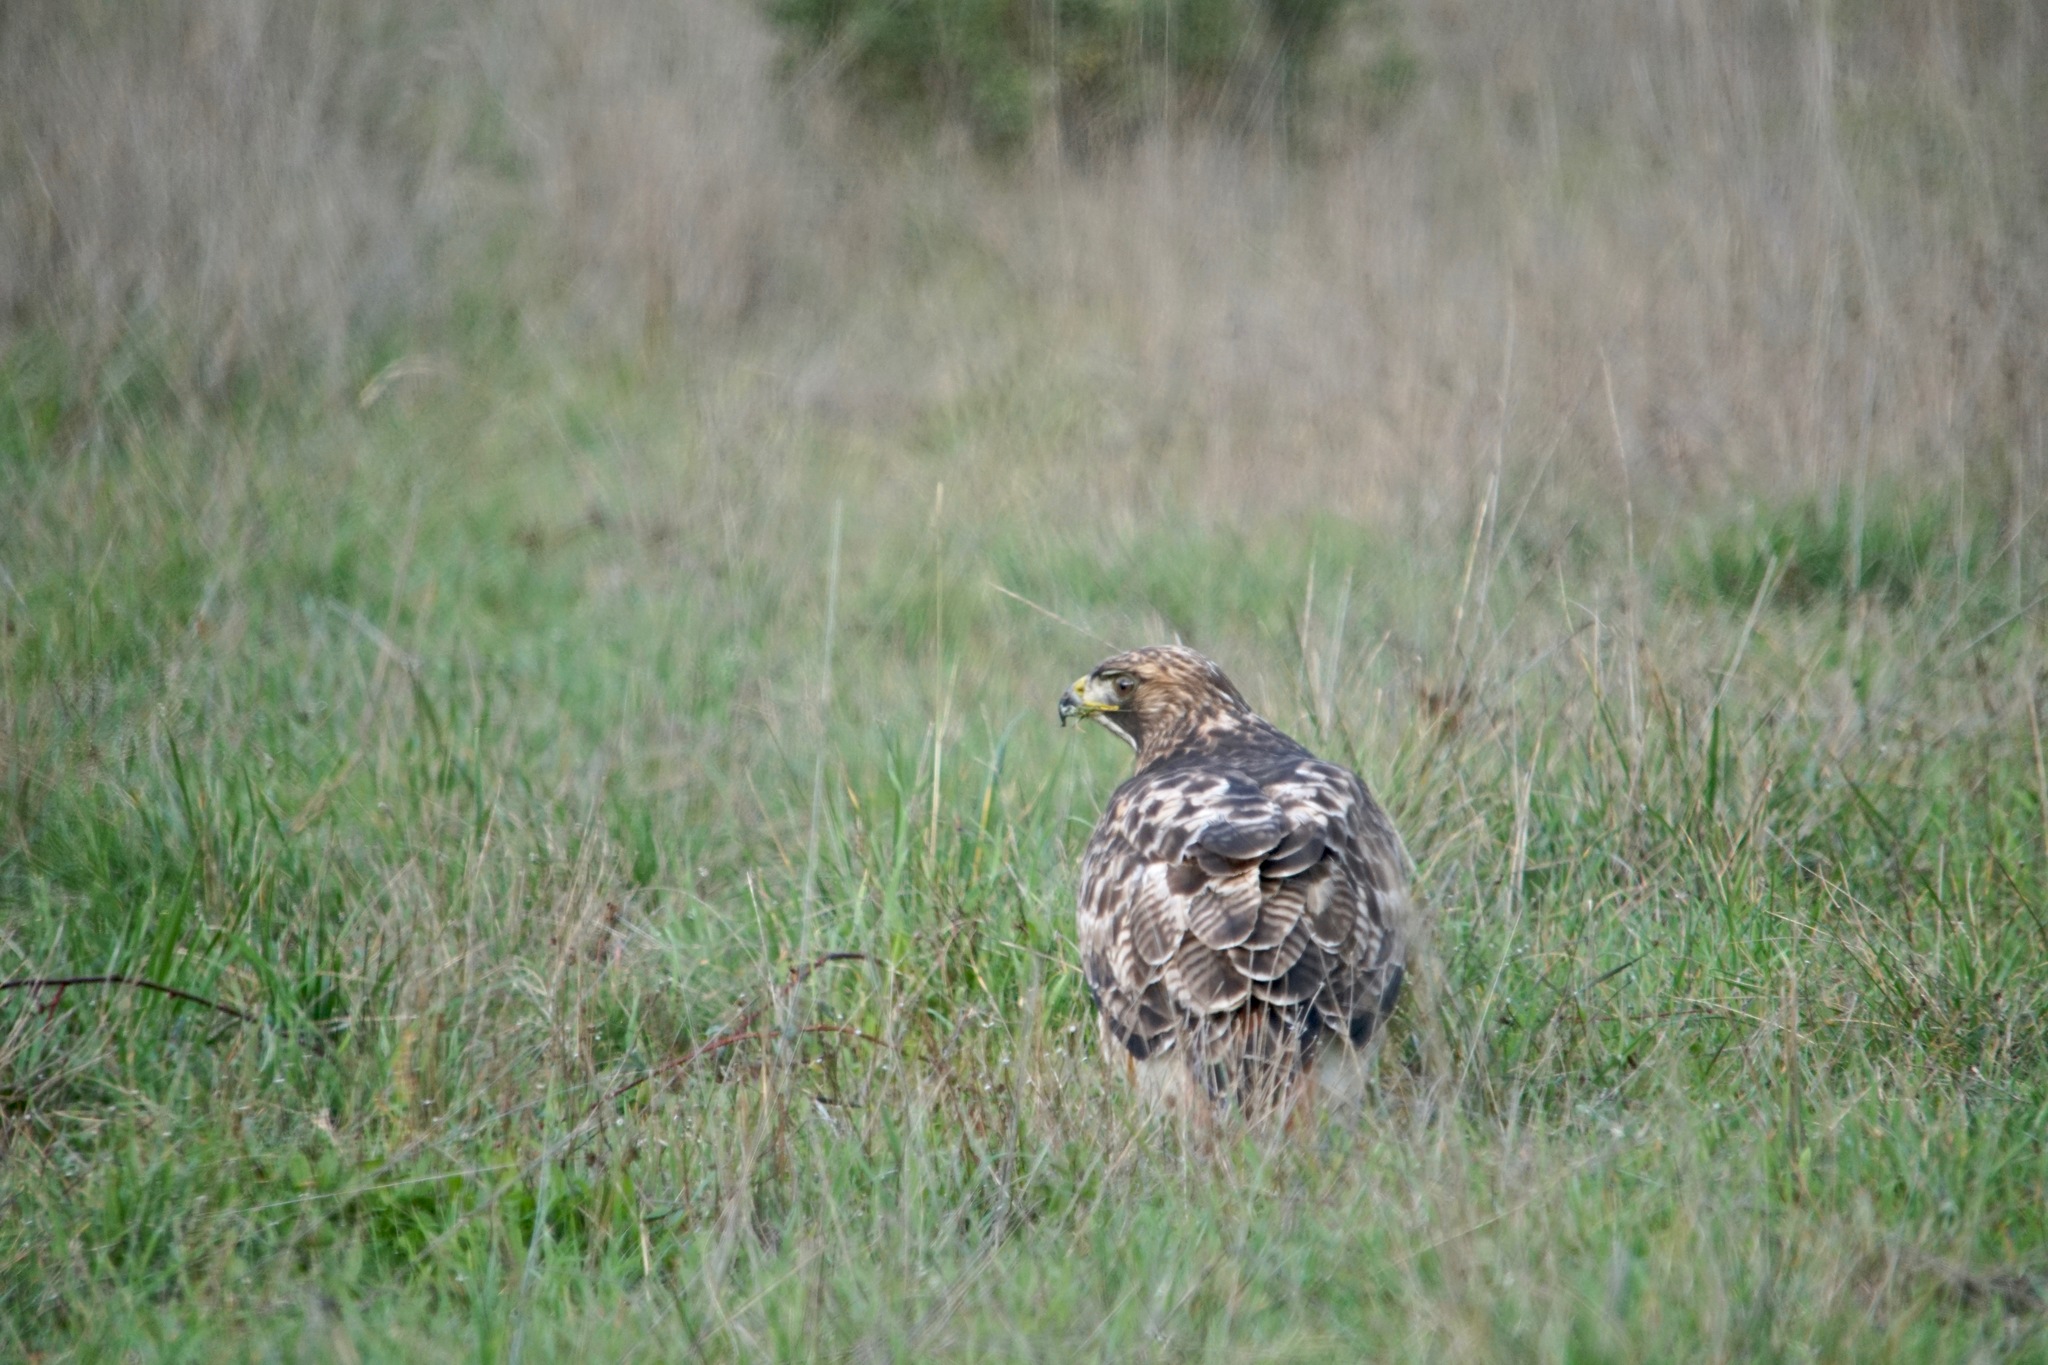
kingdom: Animalia
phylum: Chordata
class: Aves
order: Accipitriformes
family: Accipitridae
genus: Buteo
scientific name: Buteo jamaicensis
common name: Red-tailed hawk
